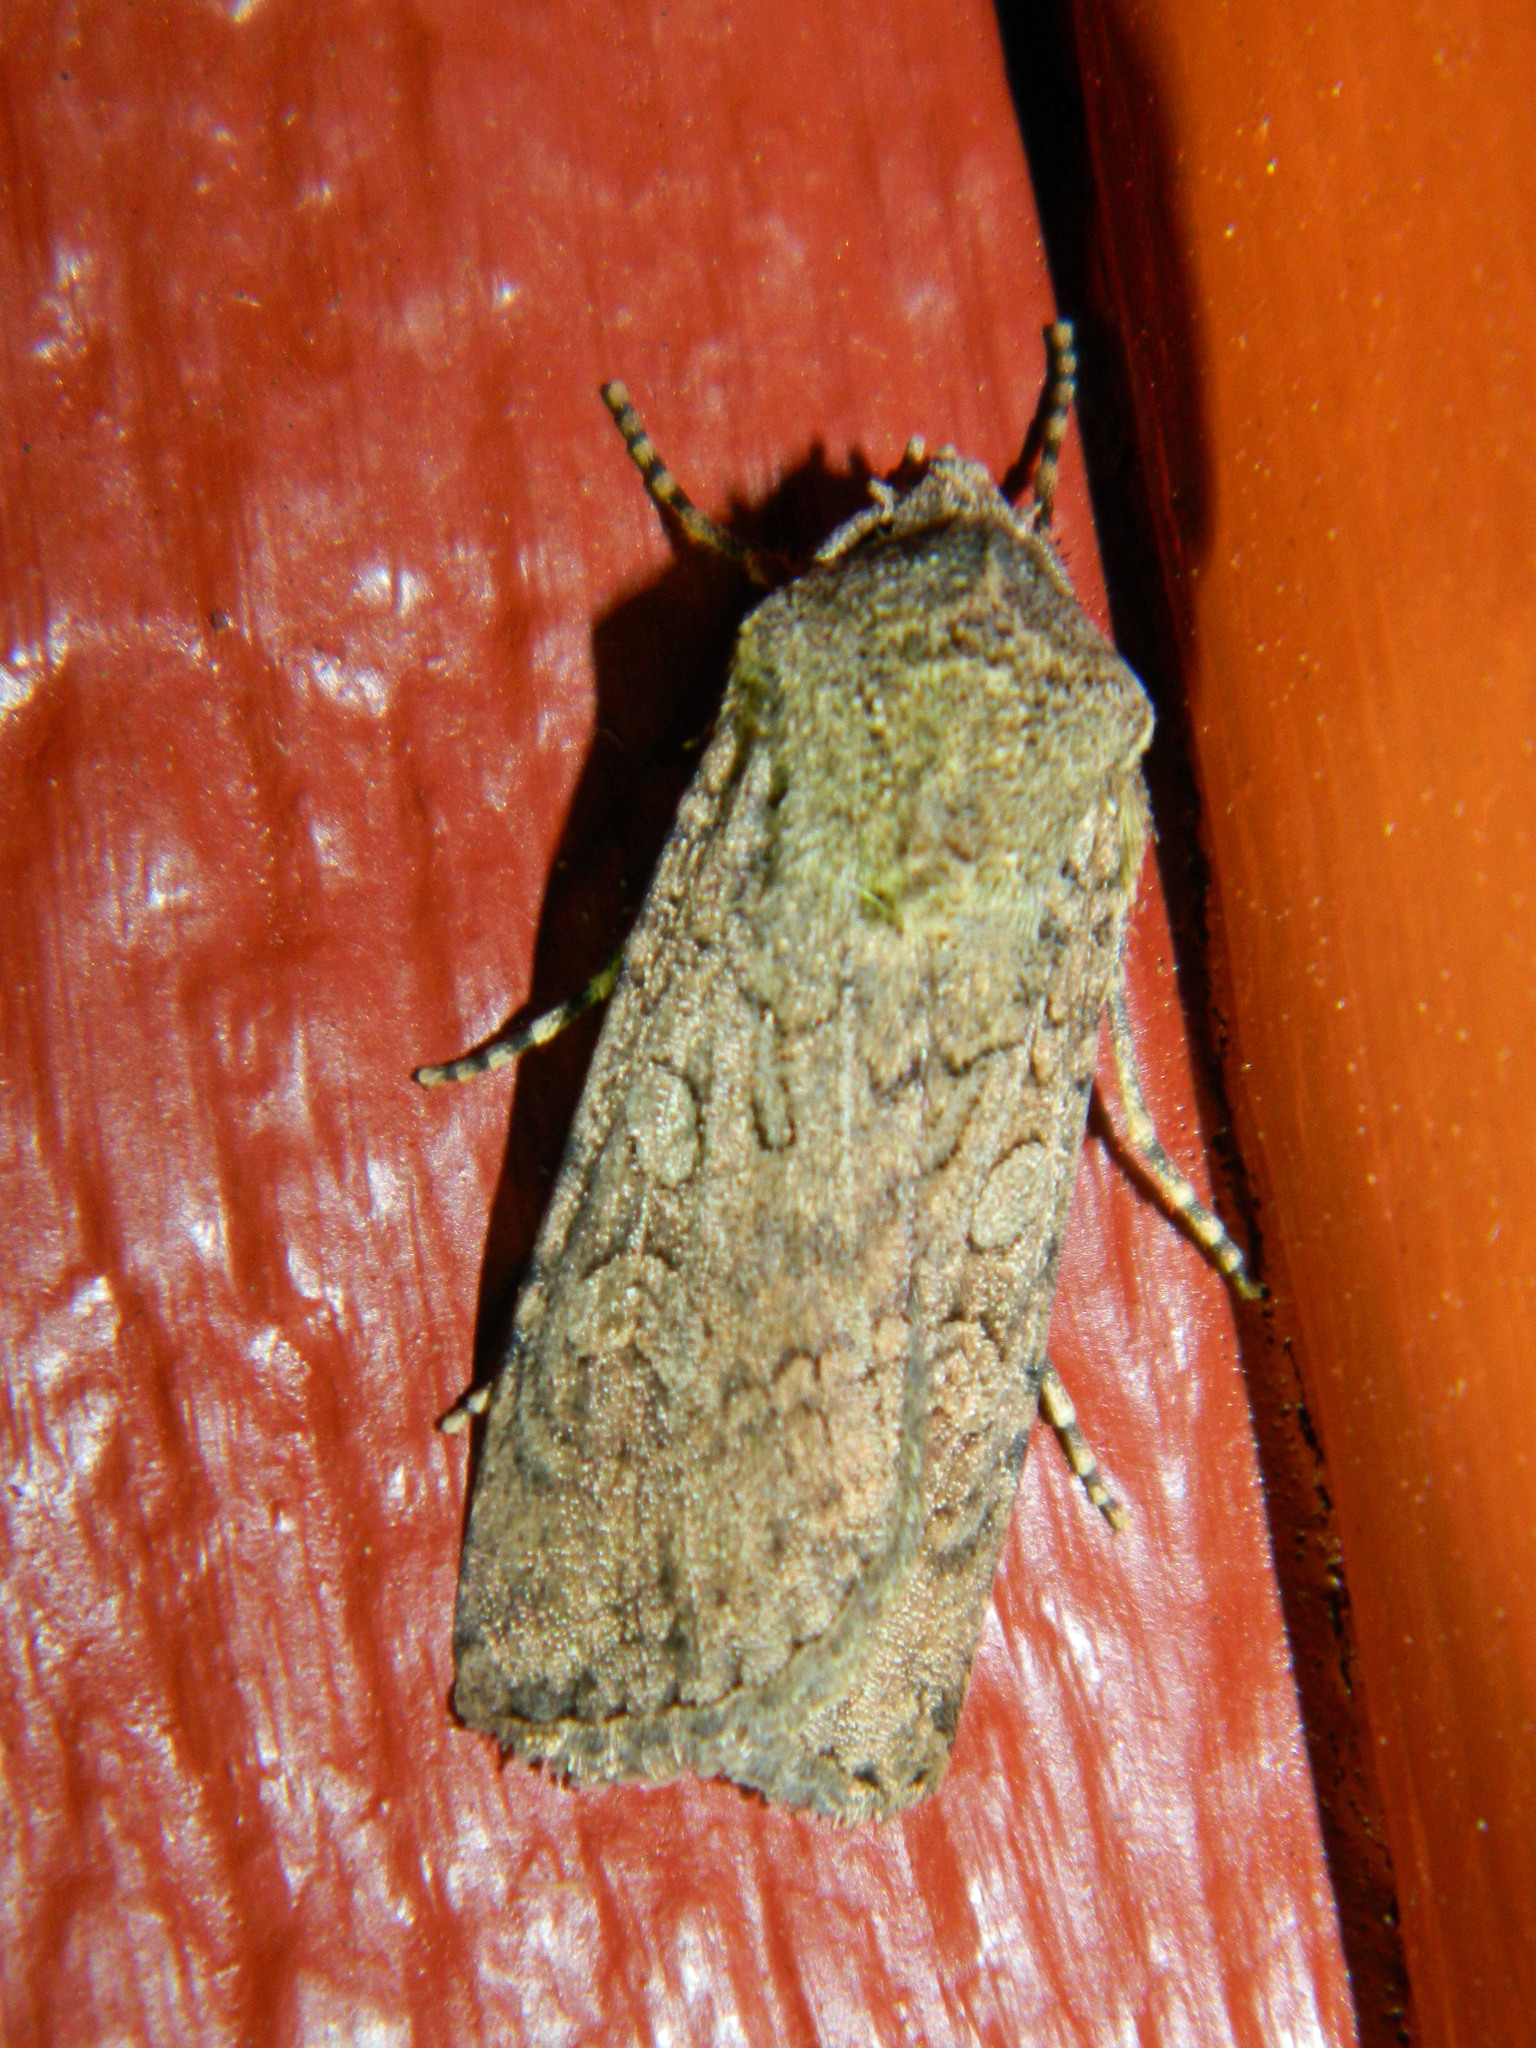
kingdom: Animalia
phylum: Arthropoda
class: Insecta
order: Lepidoptera
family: Noctuidae
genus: Euxoa
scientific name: Euxoa messoria
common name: Darksided cutworm
